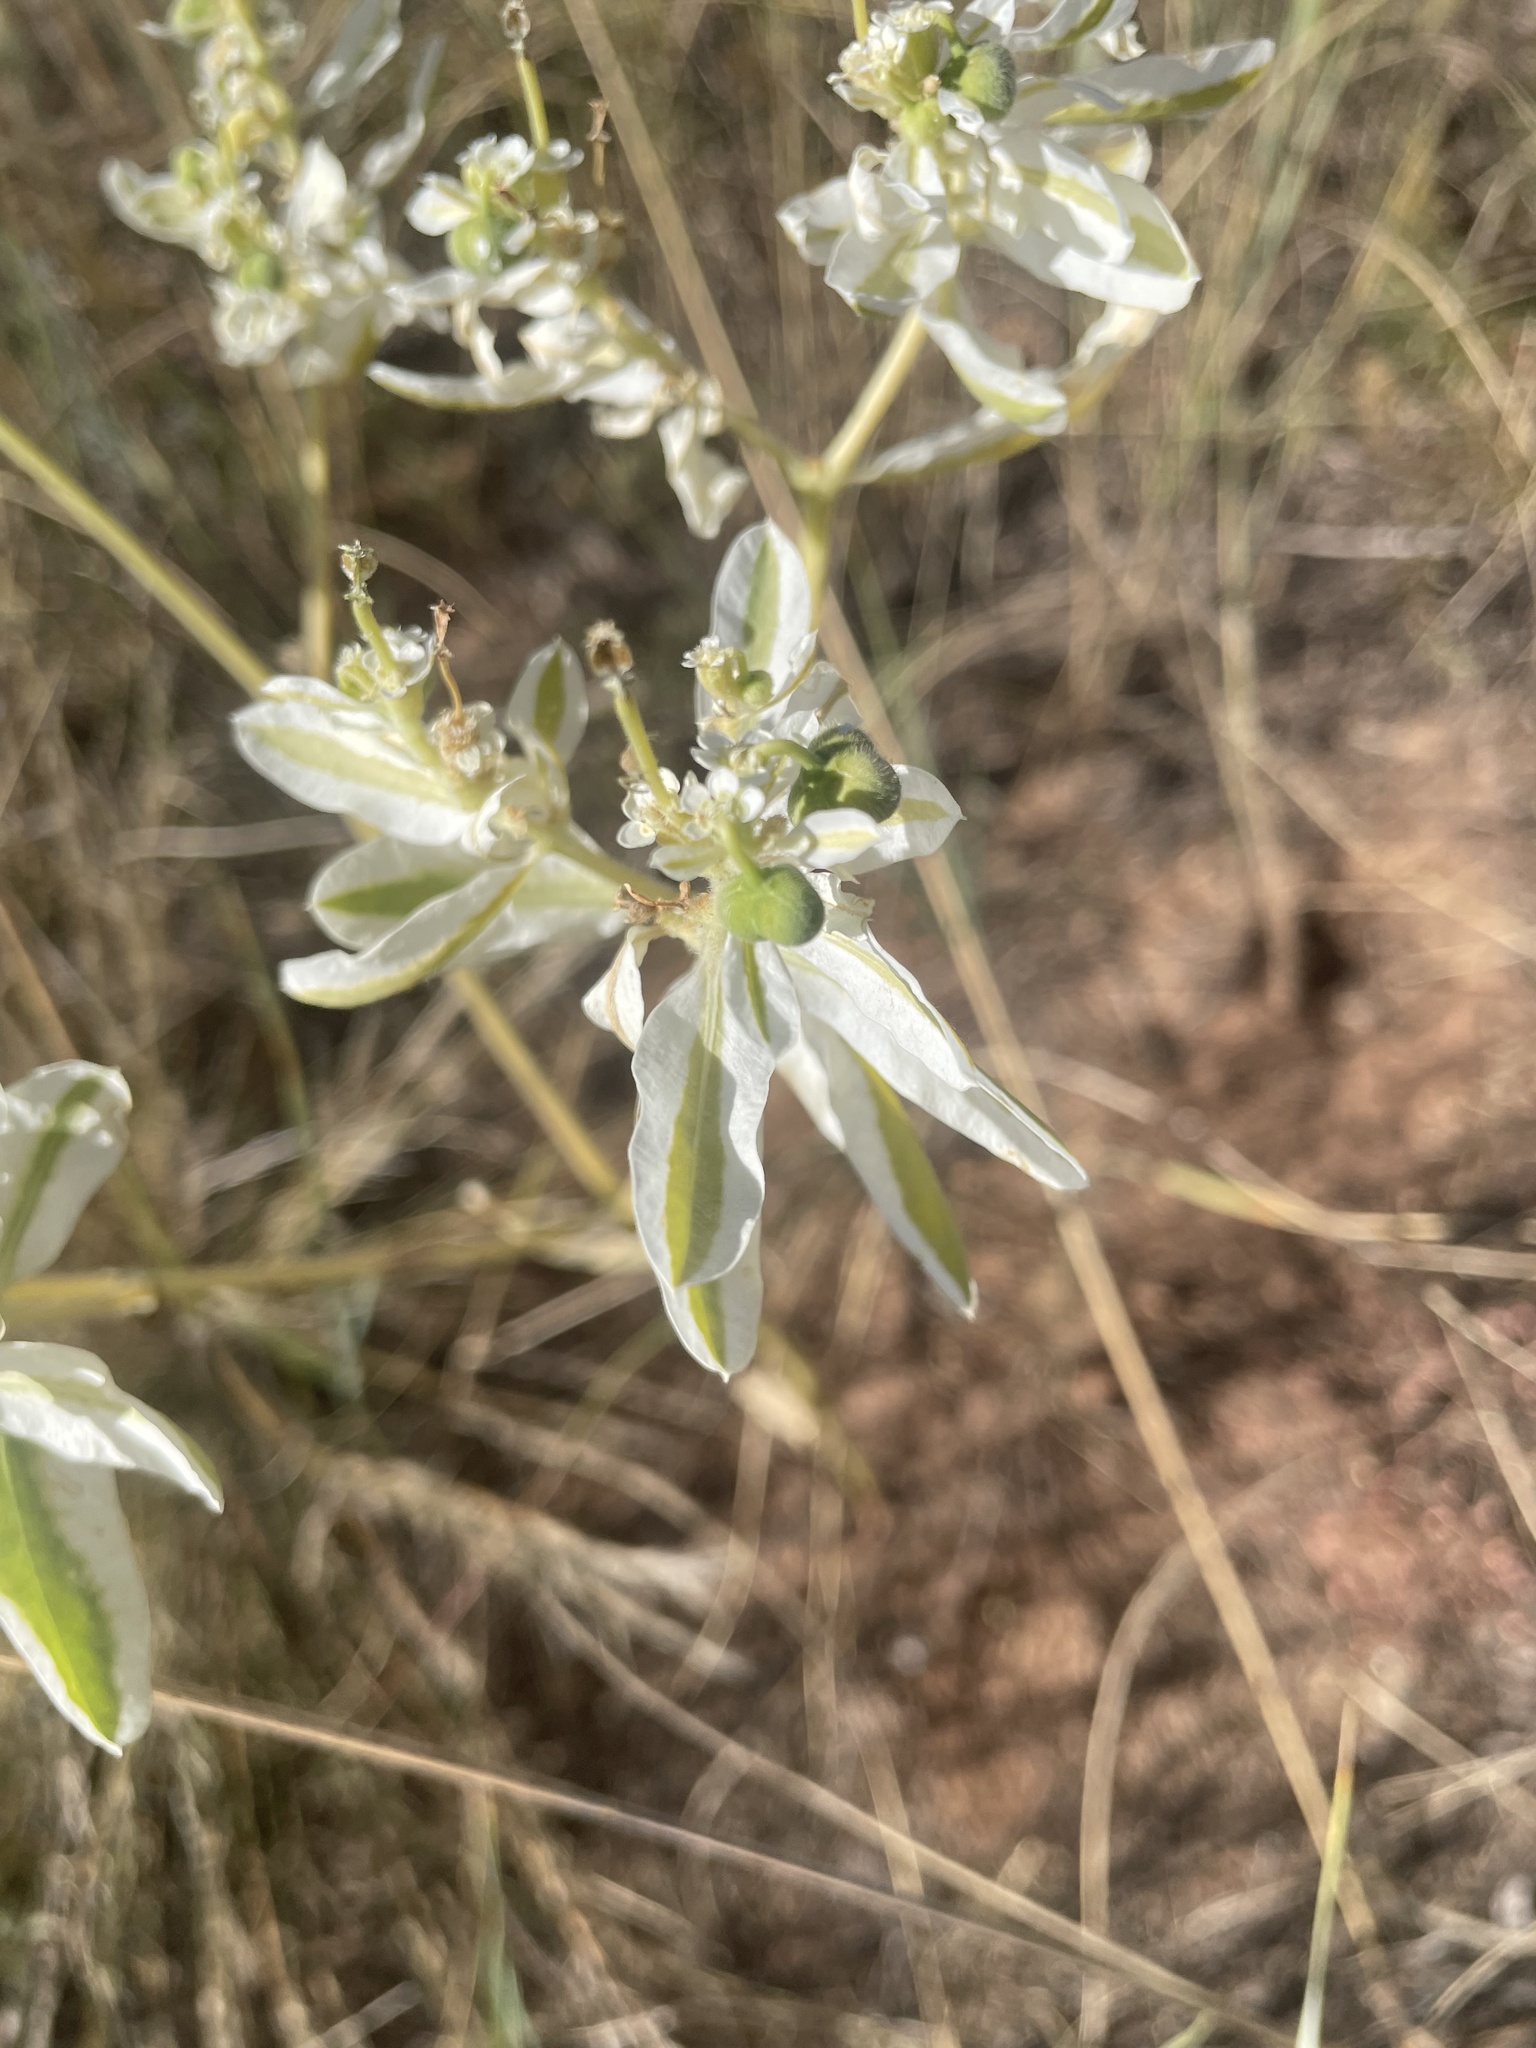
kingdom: Plantae
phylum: Tracheophyta
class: Magnoliopsida
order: Malpighiales
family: Euphorbiaceae
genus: Euphorbia
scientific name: Euphorbia marginata
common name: Ghostweed
